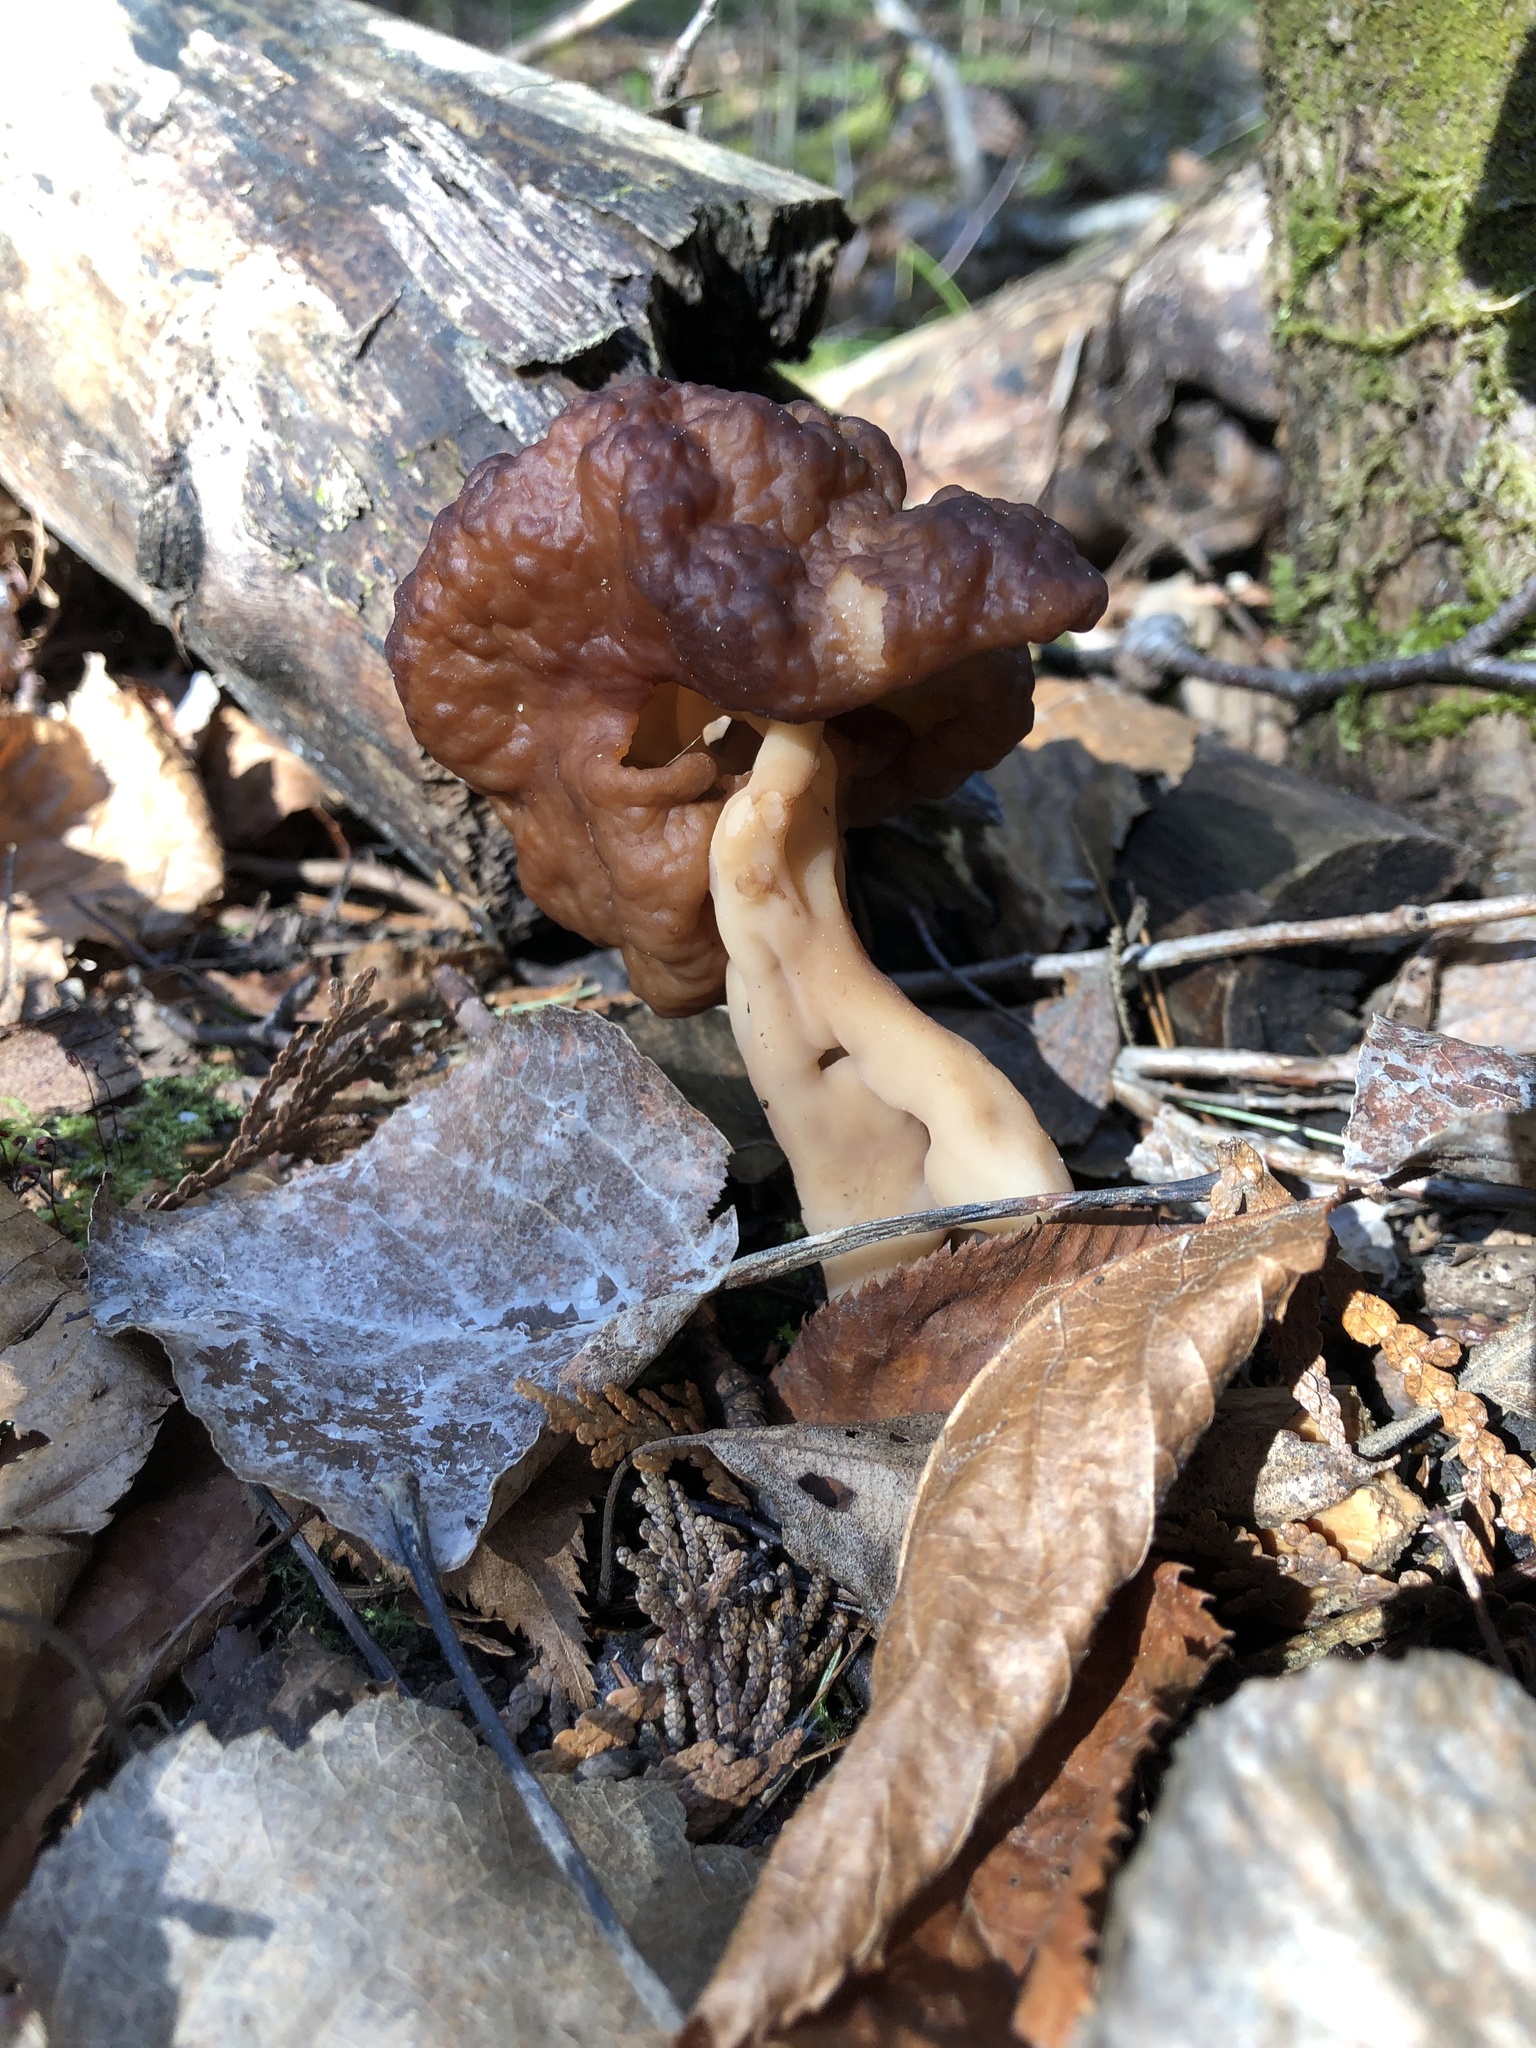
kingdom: Fungi
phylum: Ascomycota
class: Pezizomycetes
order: Pezizales
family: Discinaceae
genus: Gyromitra
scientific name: Gyromitra esculenta
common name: False morel
